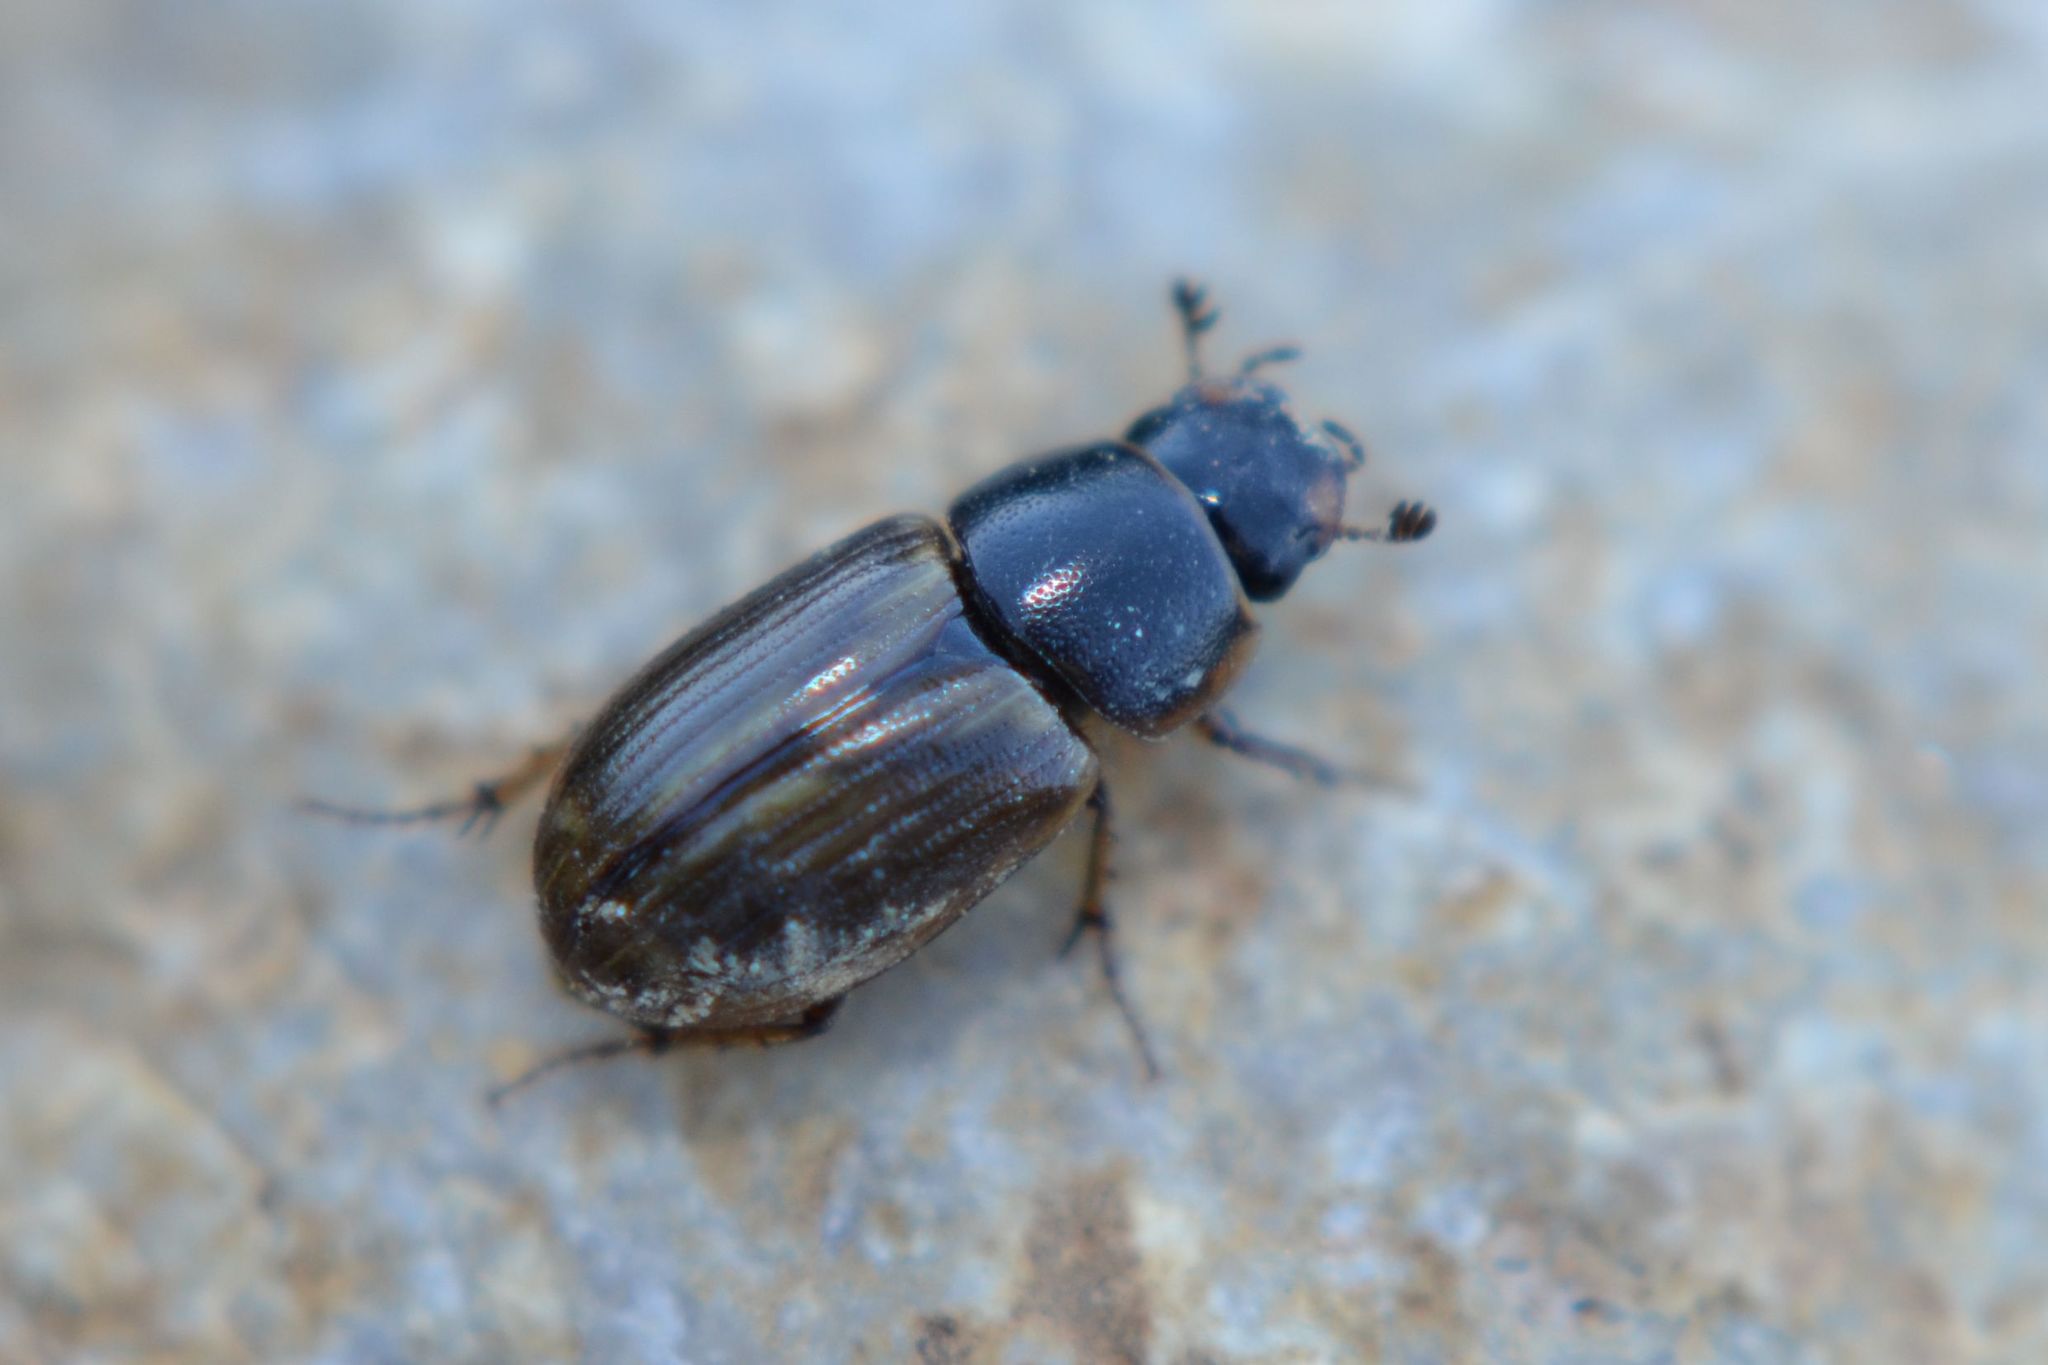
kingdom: Animalia
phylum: Arthropoda
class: Insecta
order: Coleoptera
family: Scarabaeidae
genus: Melinopterus
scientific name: Melinopterus consputus
